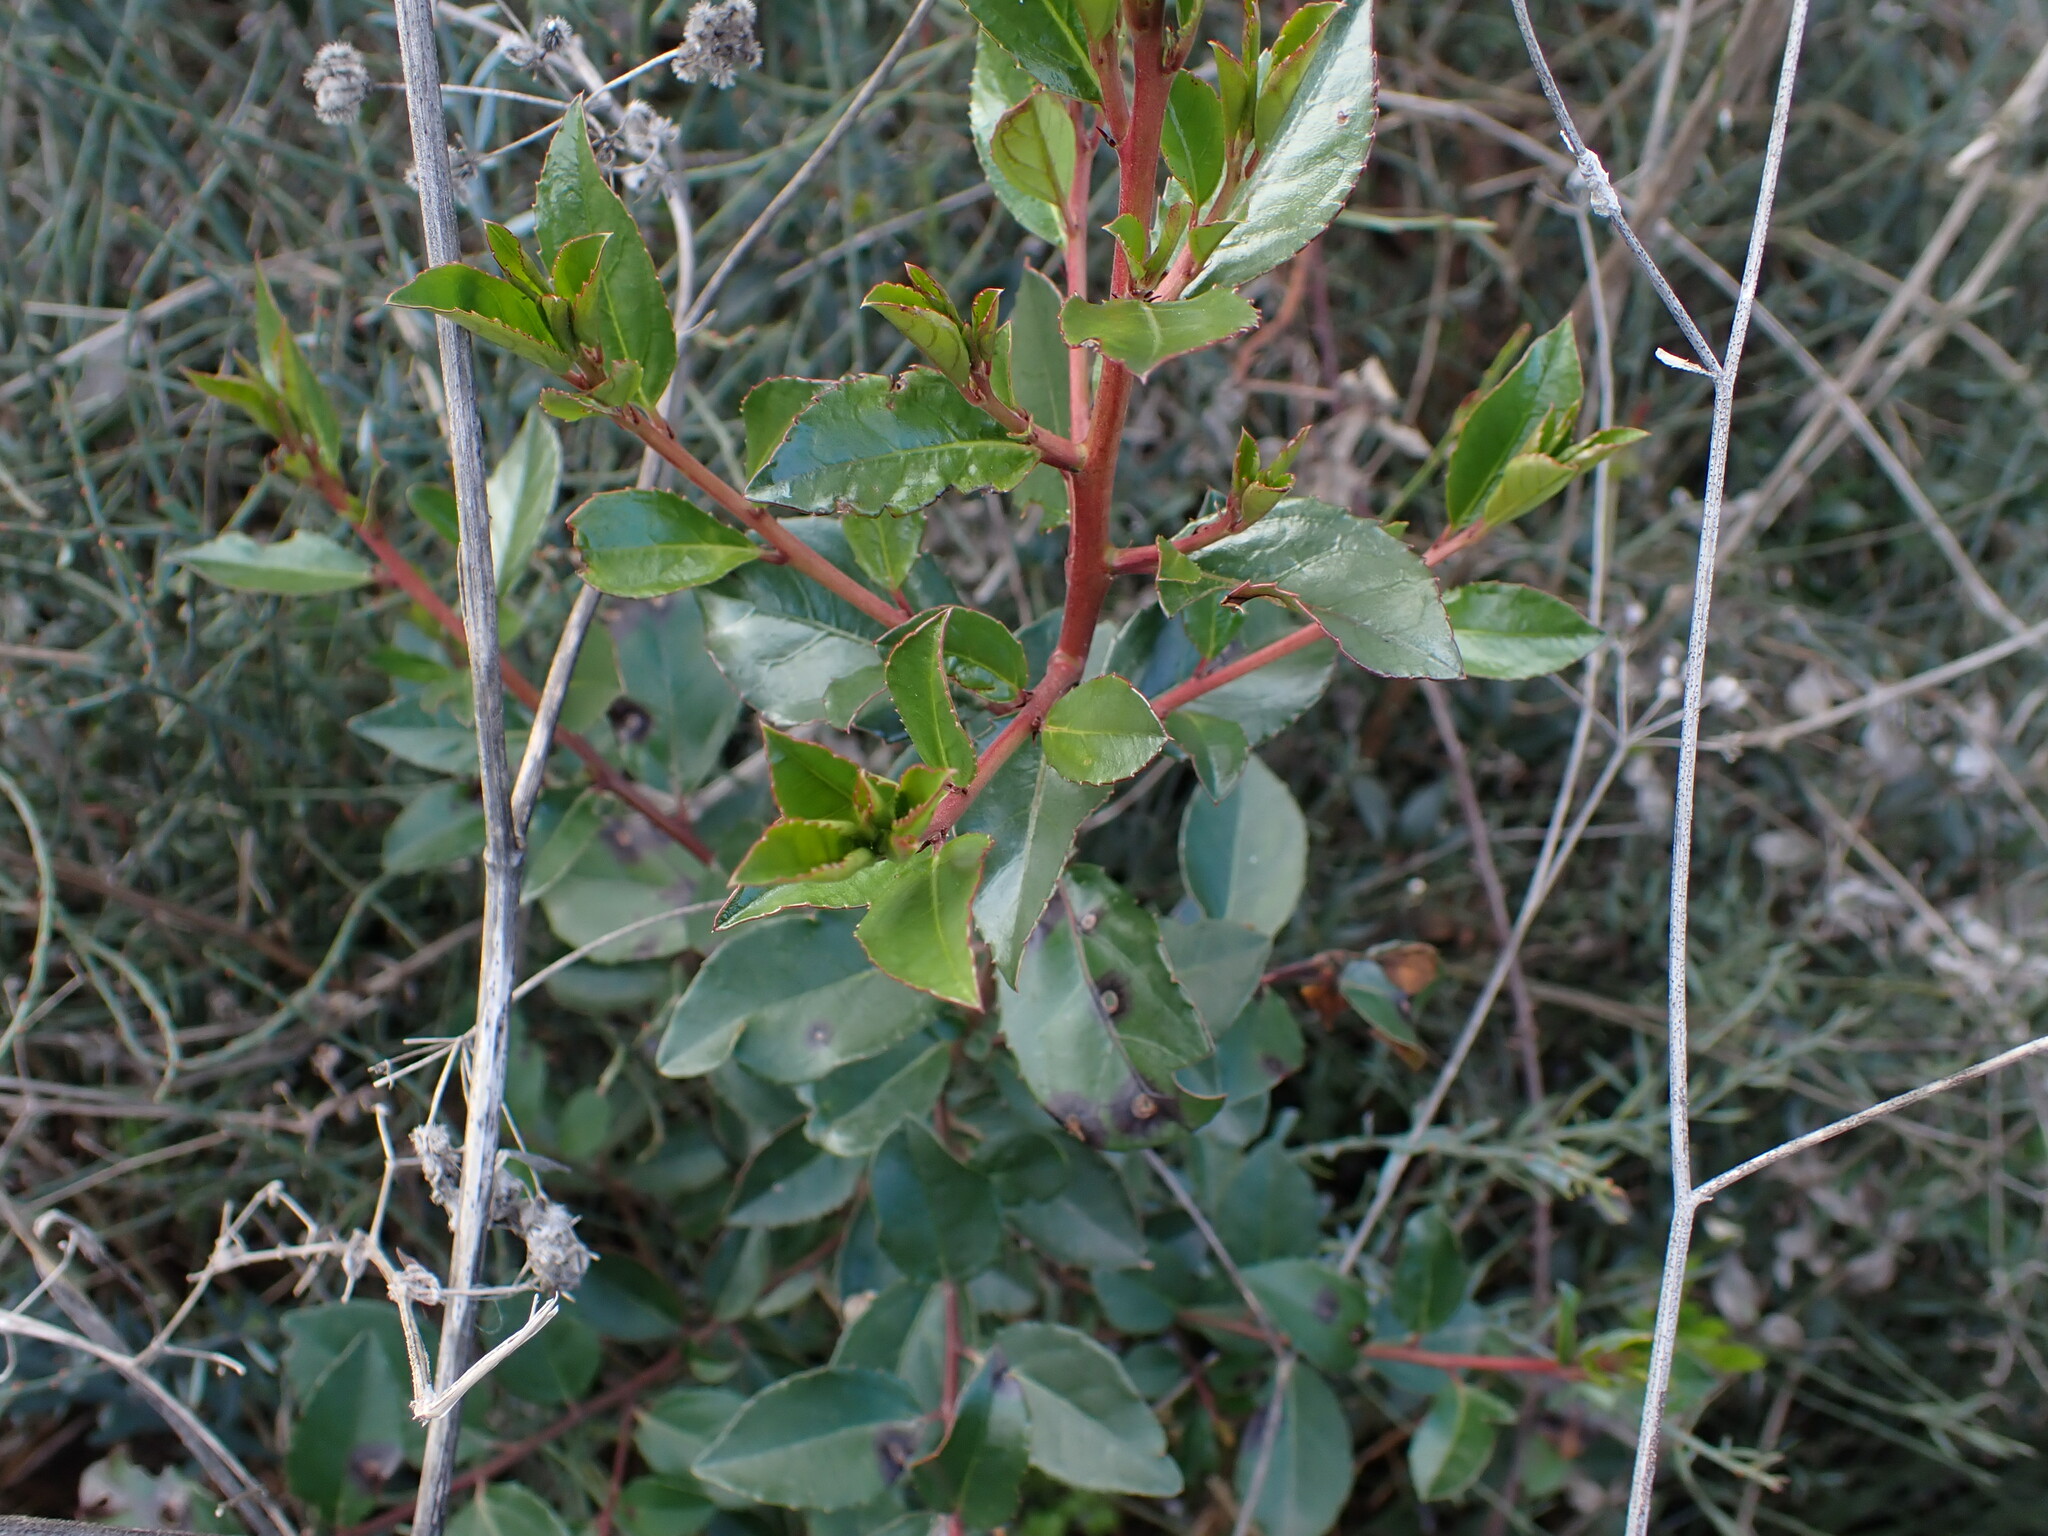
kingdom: Plantae
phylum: Tracheophyta
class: Magnoliopsida
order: Ericales
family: Ericaceae
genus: Arbutus
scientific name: Arbutus unedo
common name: Strawberry-tree
